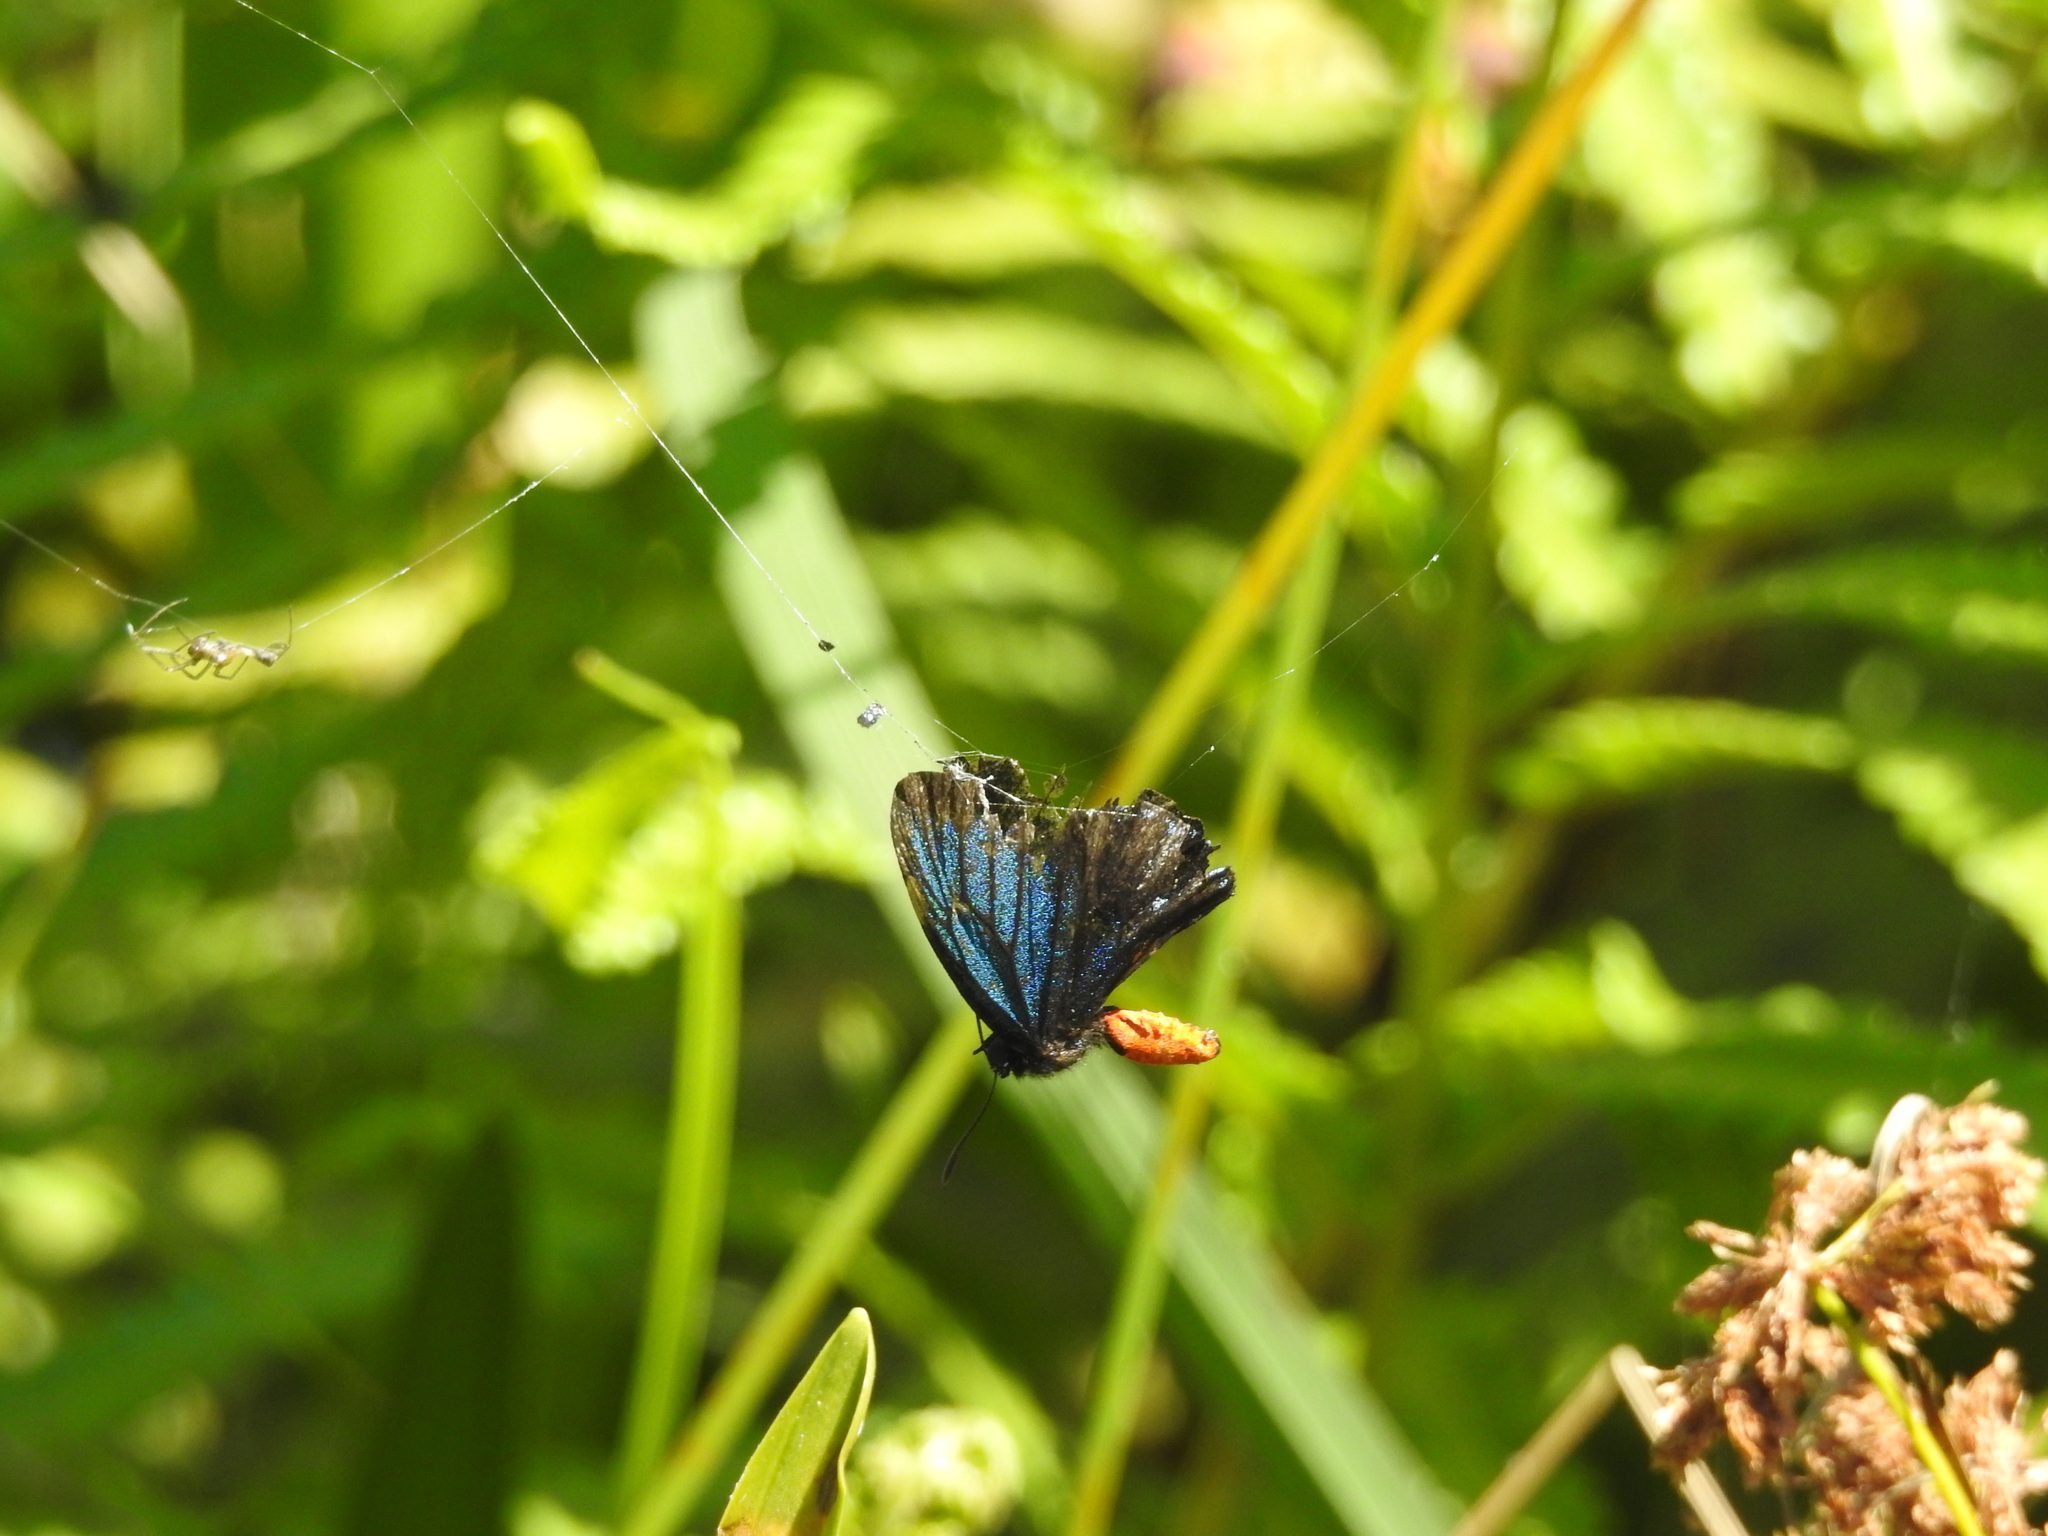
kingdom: Animalia
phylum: Arthropoda
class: Insecta
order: Lepidoptera
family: Lycaenidae
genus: Eumaeus
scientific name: Eumaeus atala
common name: Atala
